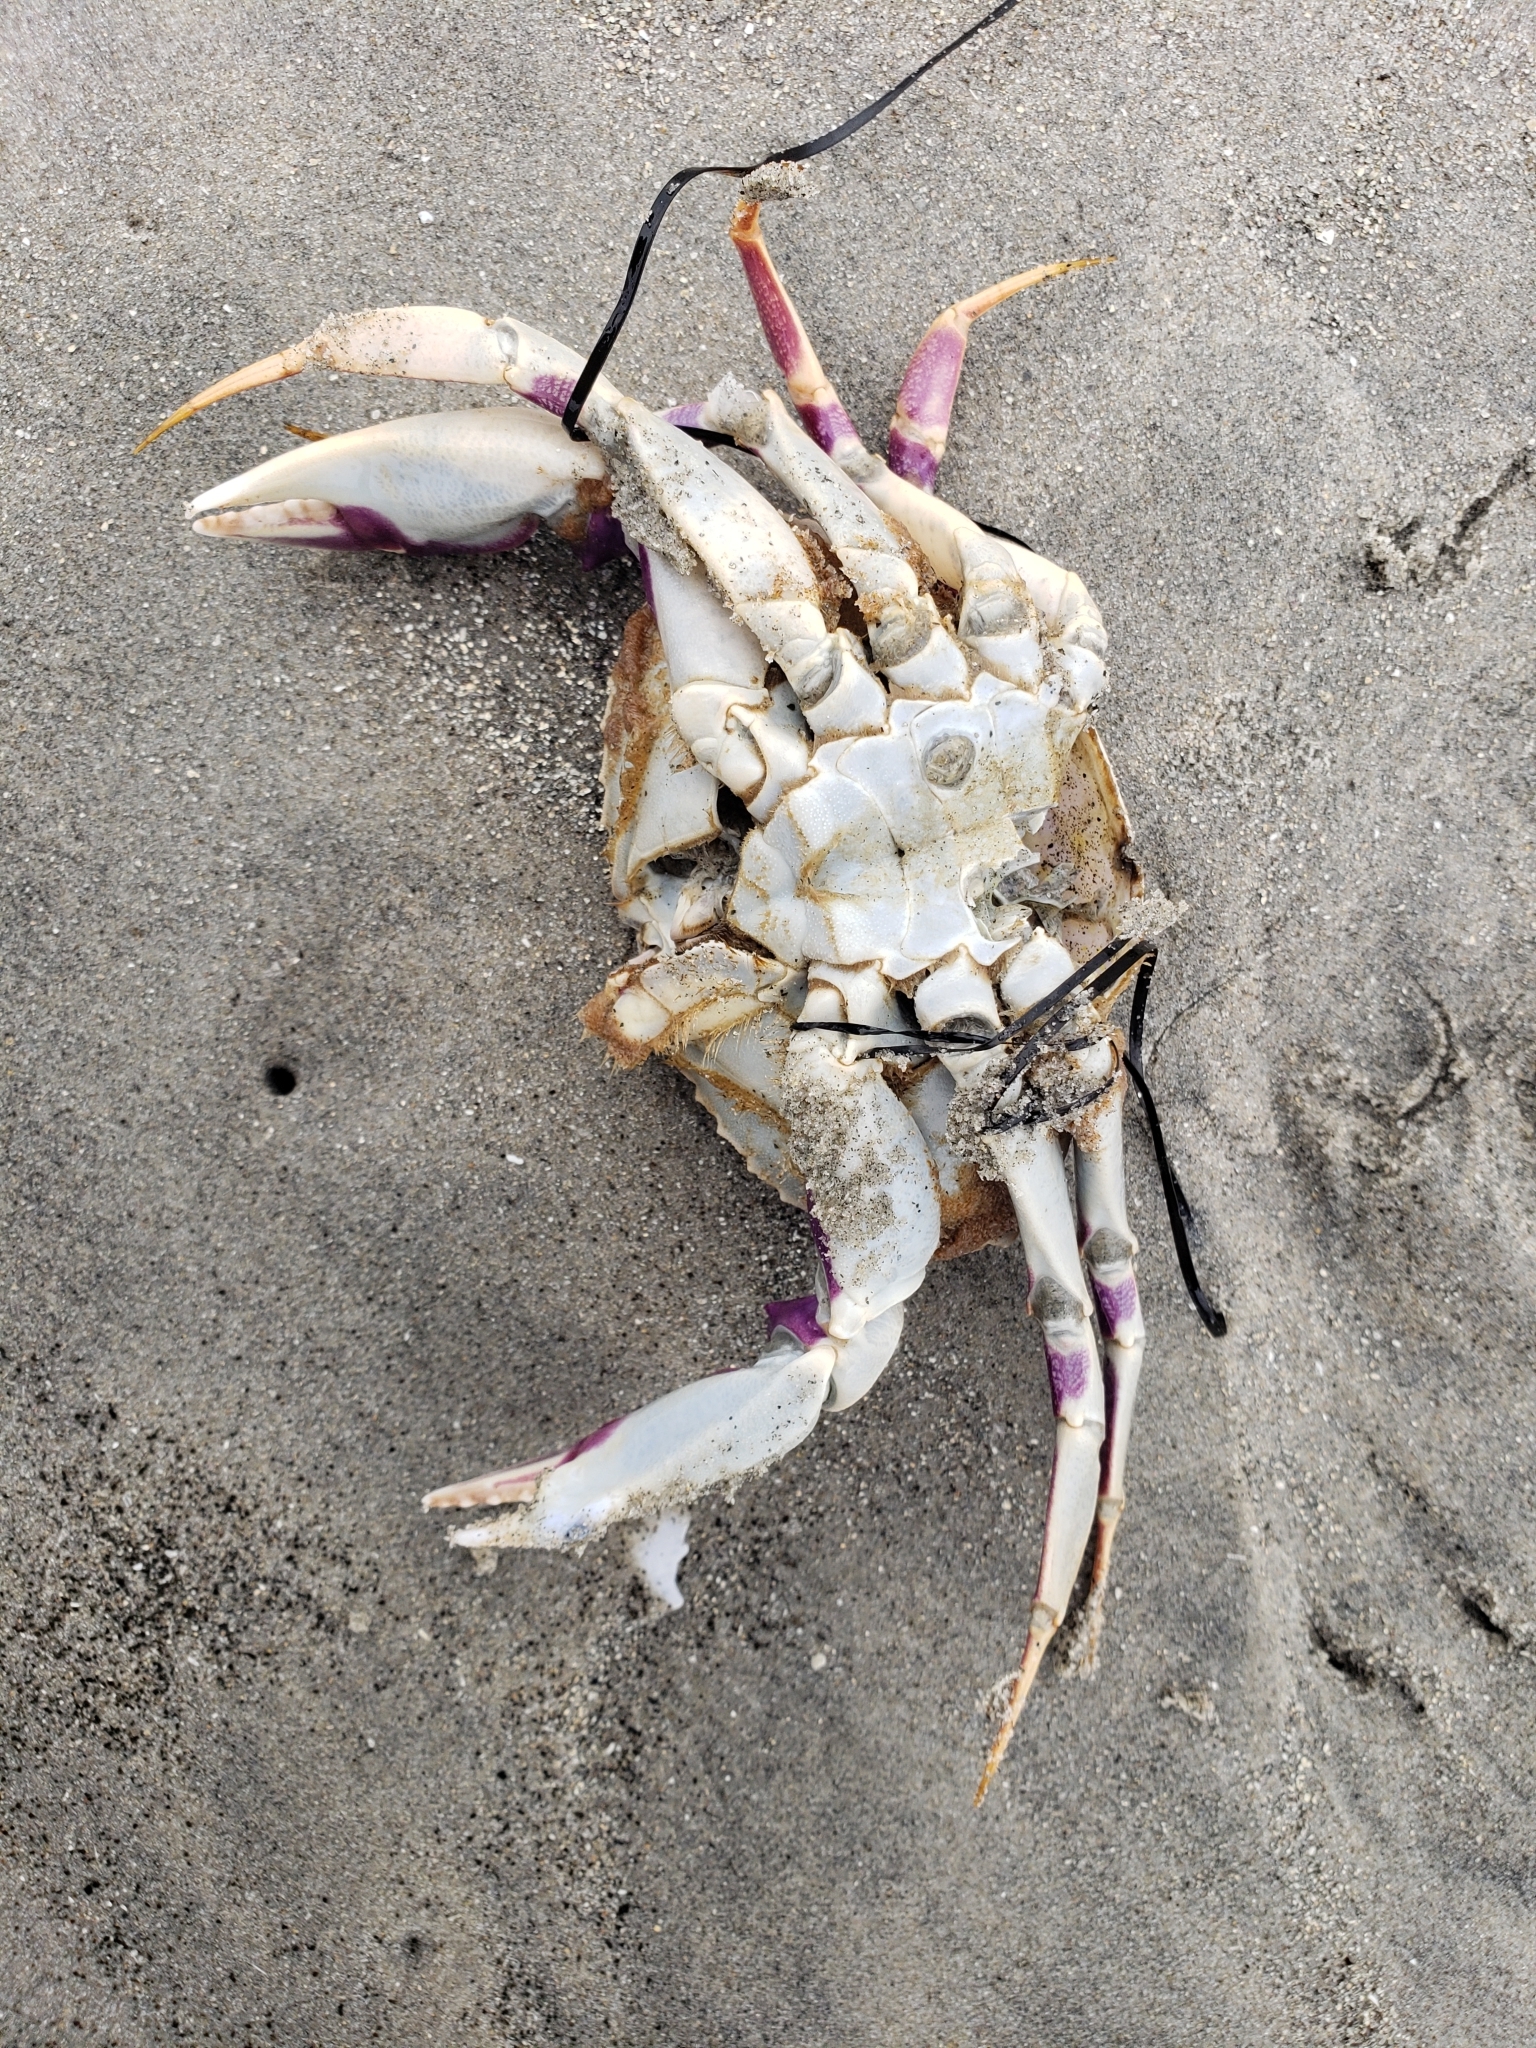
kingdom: Animalia
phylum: Arthropoda
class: Malacostraca
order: Decapoda
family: Cancridae
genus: Metacarcinus
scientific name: Metacarcinus gracilis
